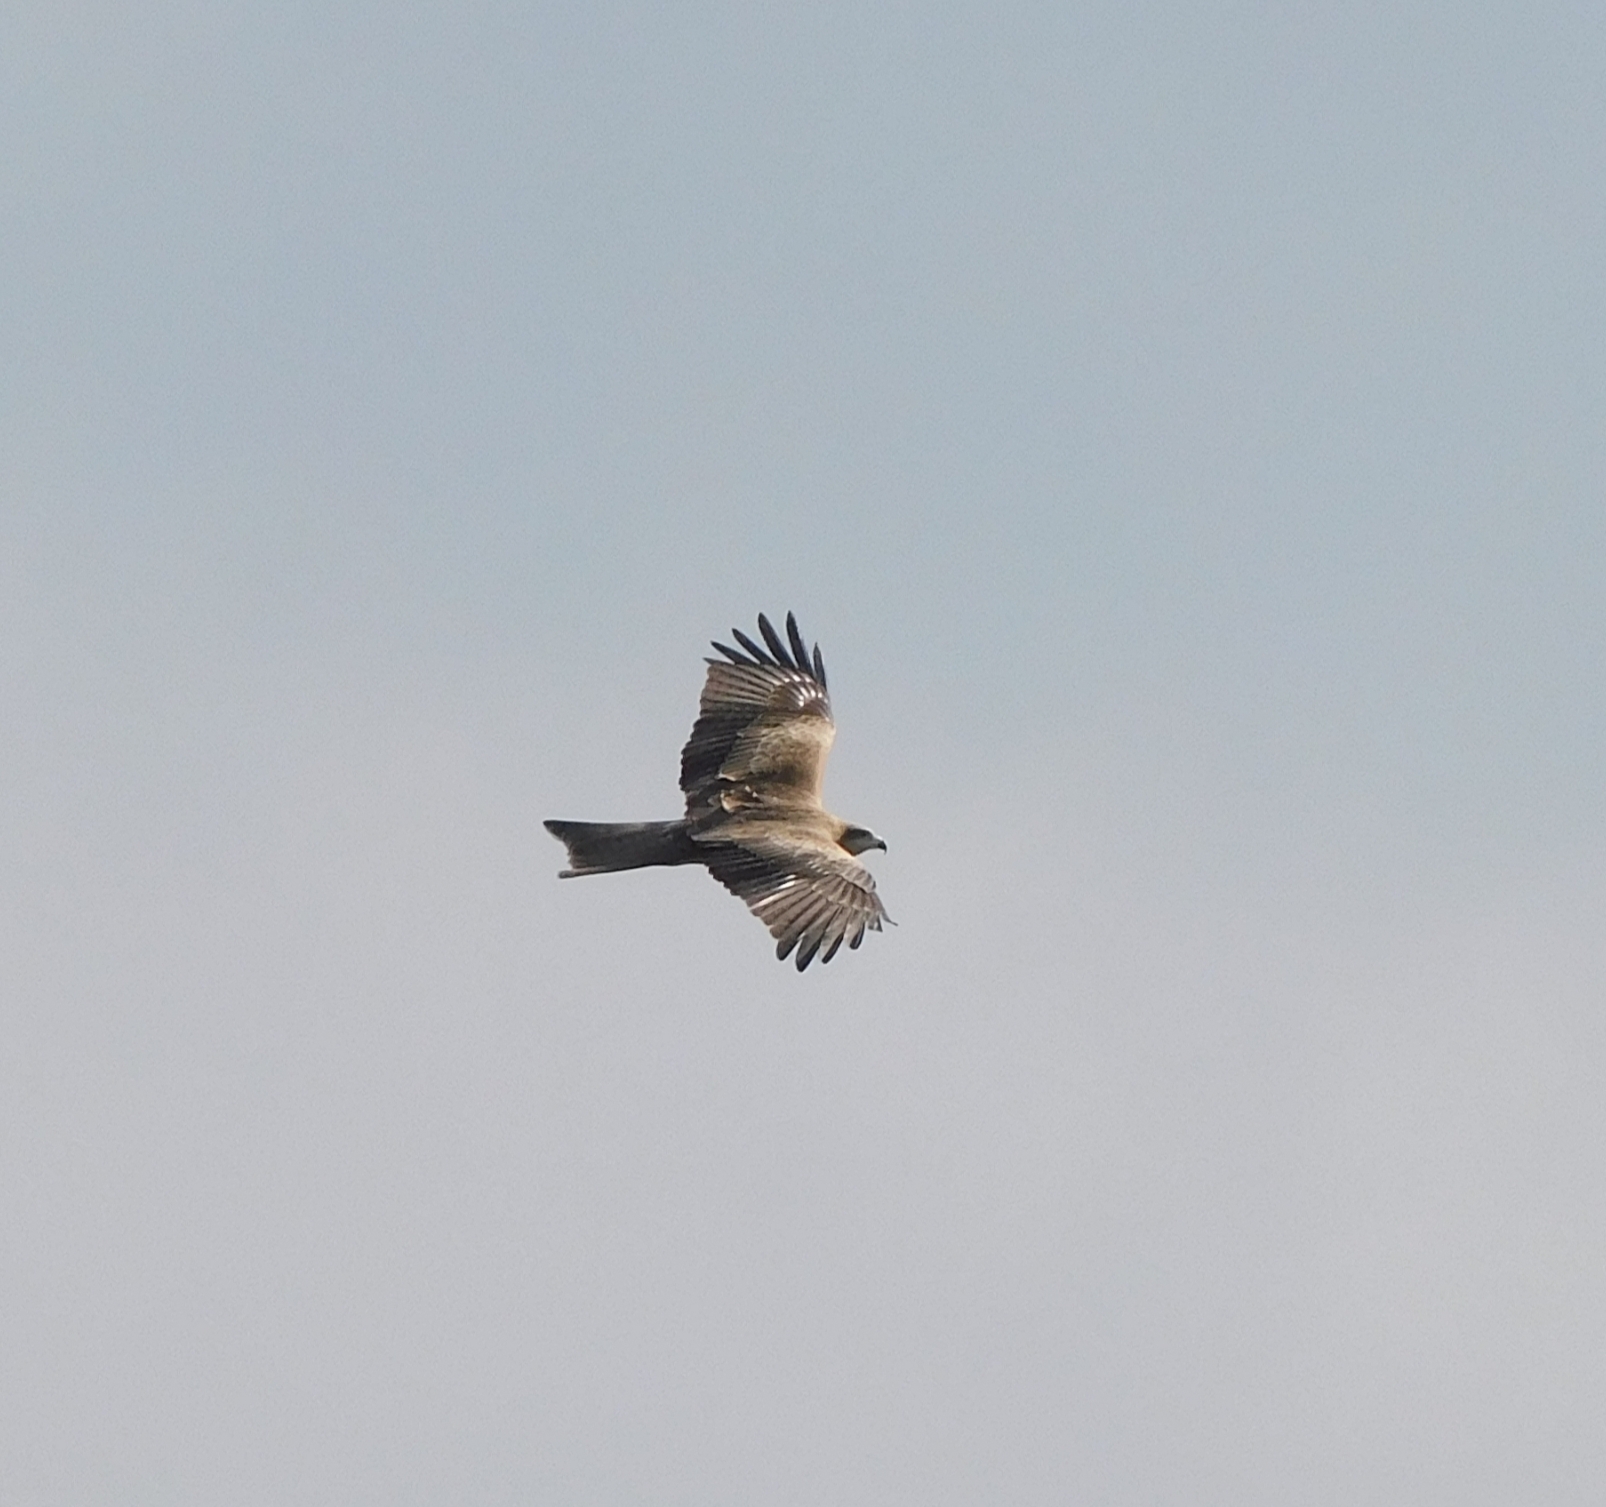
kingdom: Animalia
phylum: Chordata
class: Aves
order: Accipitriformes
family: Accipitridae
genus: Milvus
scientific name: Milvus migrans
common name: Black kite
